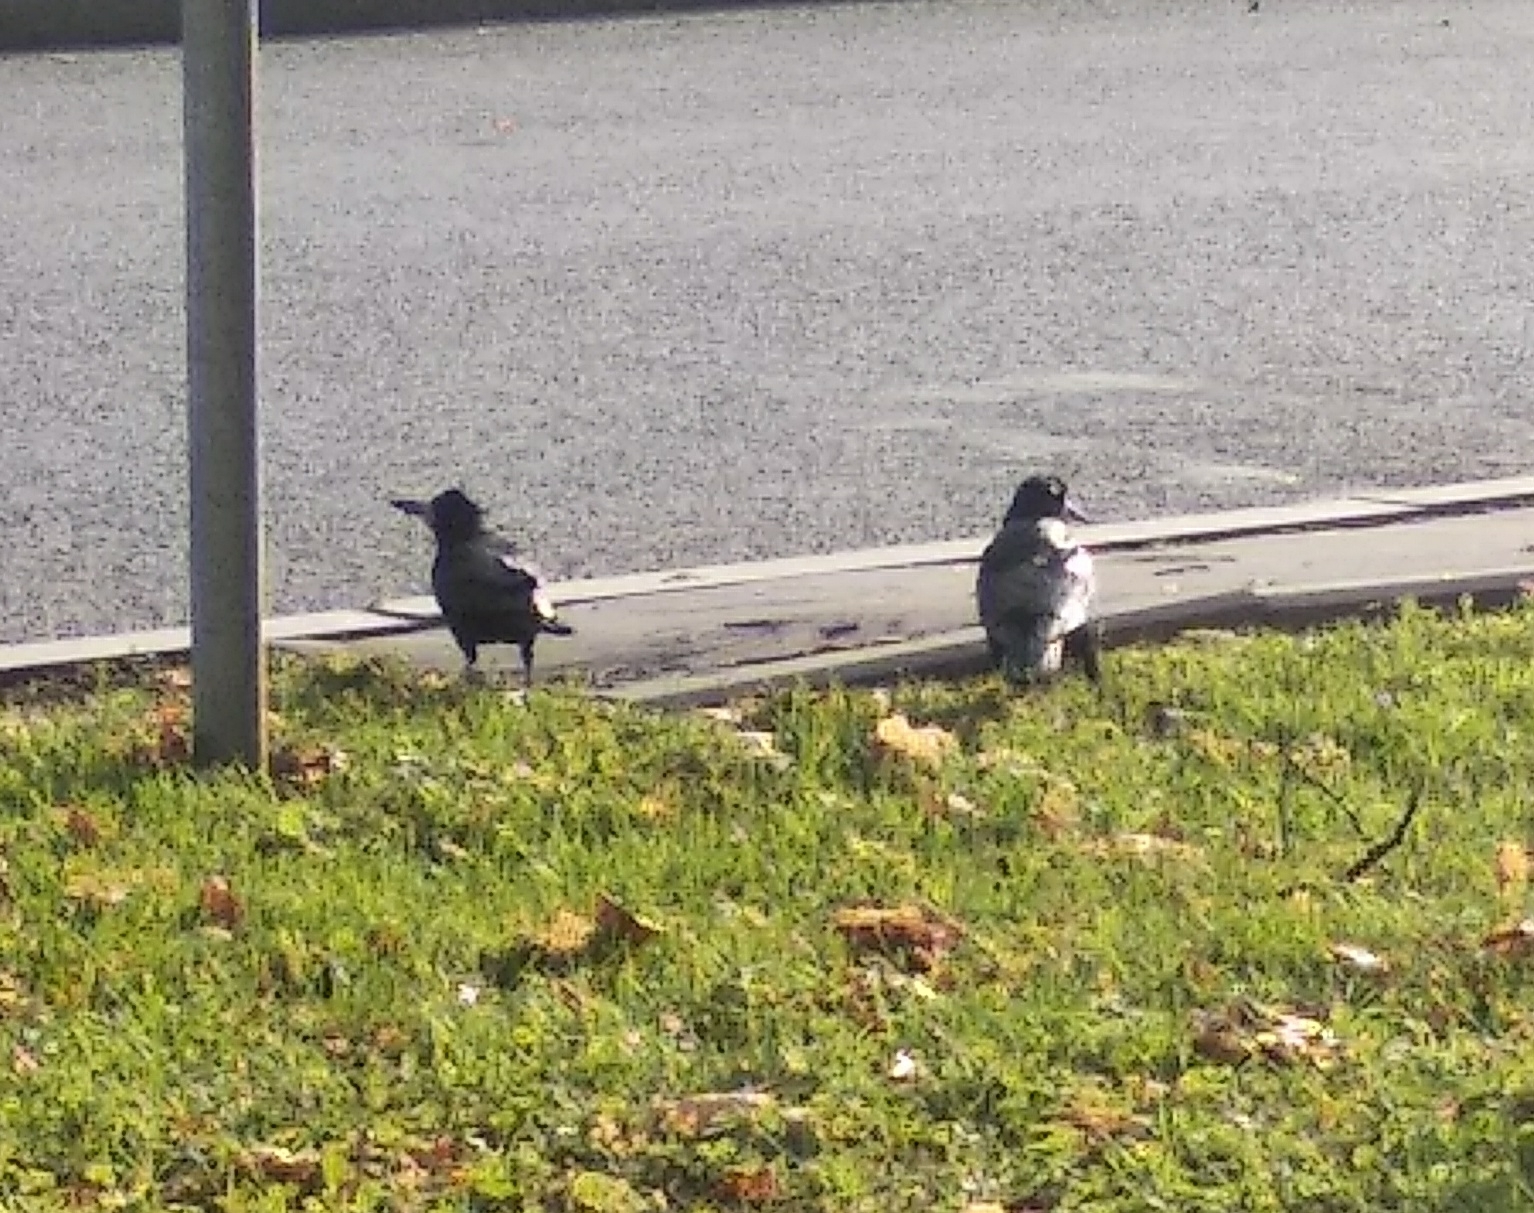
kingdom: Animalia
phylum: Chordata
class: Aves
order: Passeriformes
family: Corvidae
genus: Corvus
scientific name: Corvus frugilegus
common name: Rook
